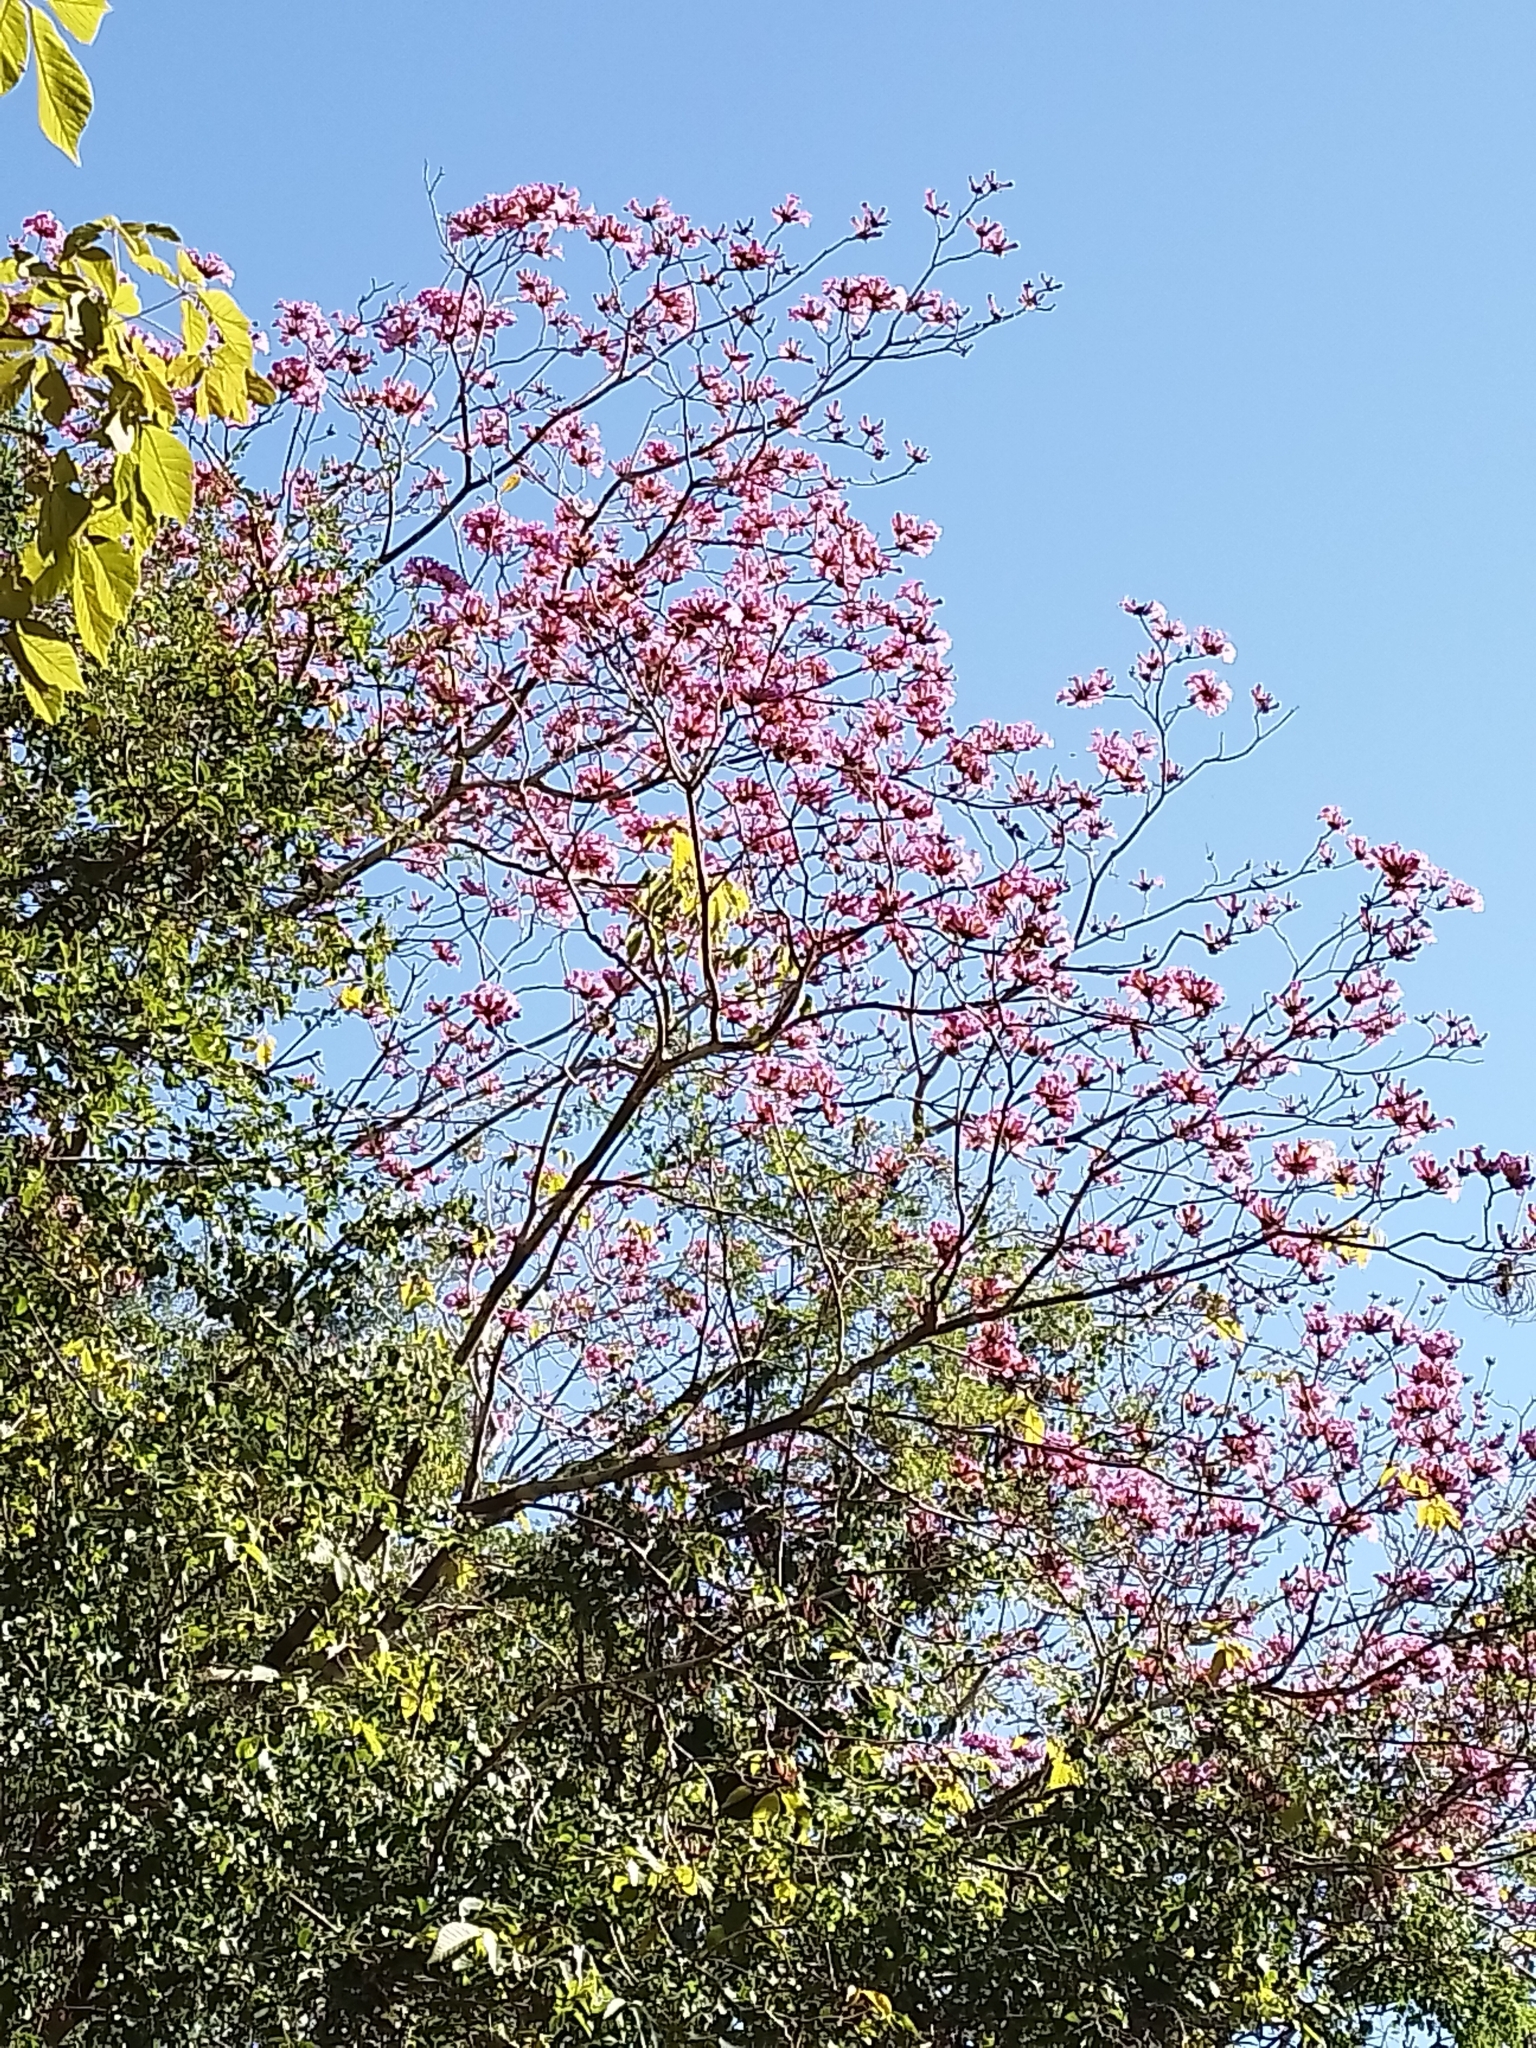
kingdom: Plantae
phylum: Tracheophyta
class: Magnoliopsida
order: Lamiales
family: Bignoniaceae
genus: Handroanthus
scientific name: Handroanthus impetiginosum
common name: Pink trumpet tree
